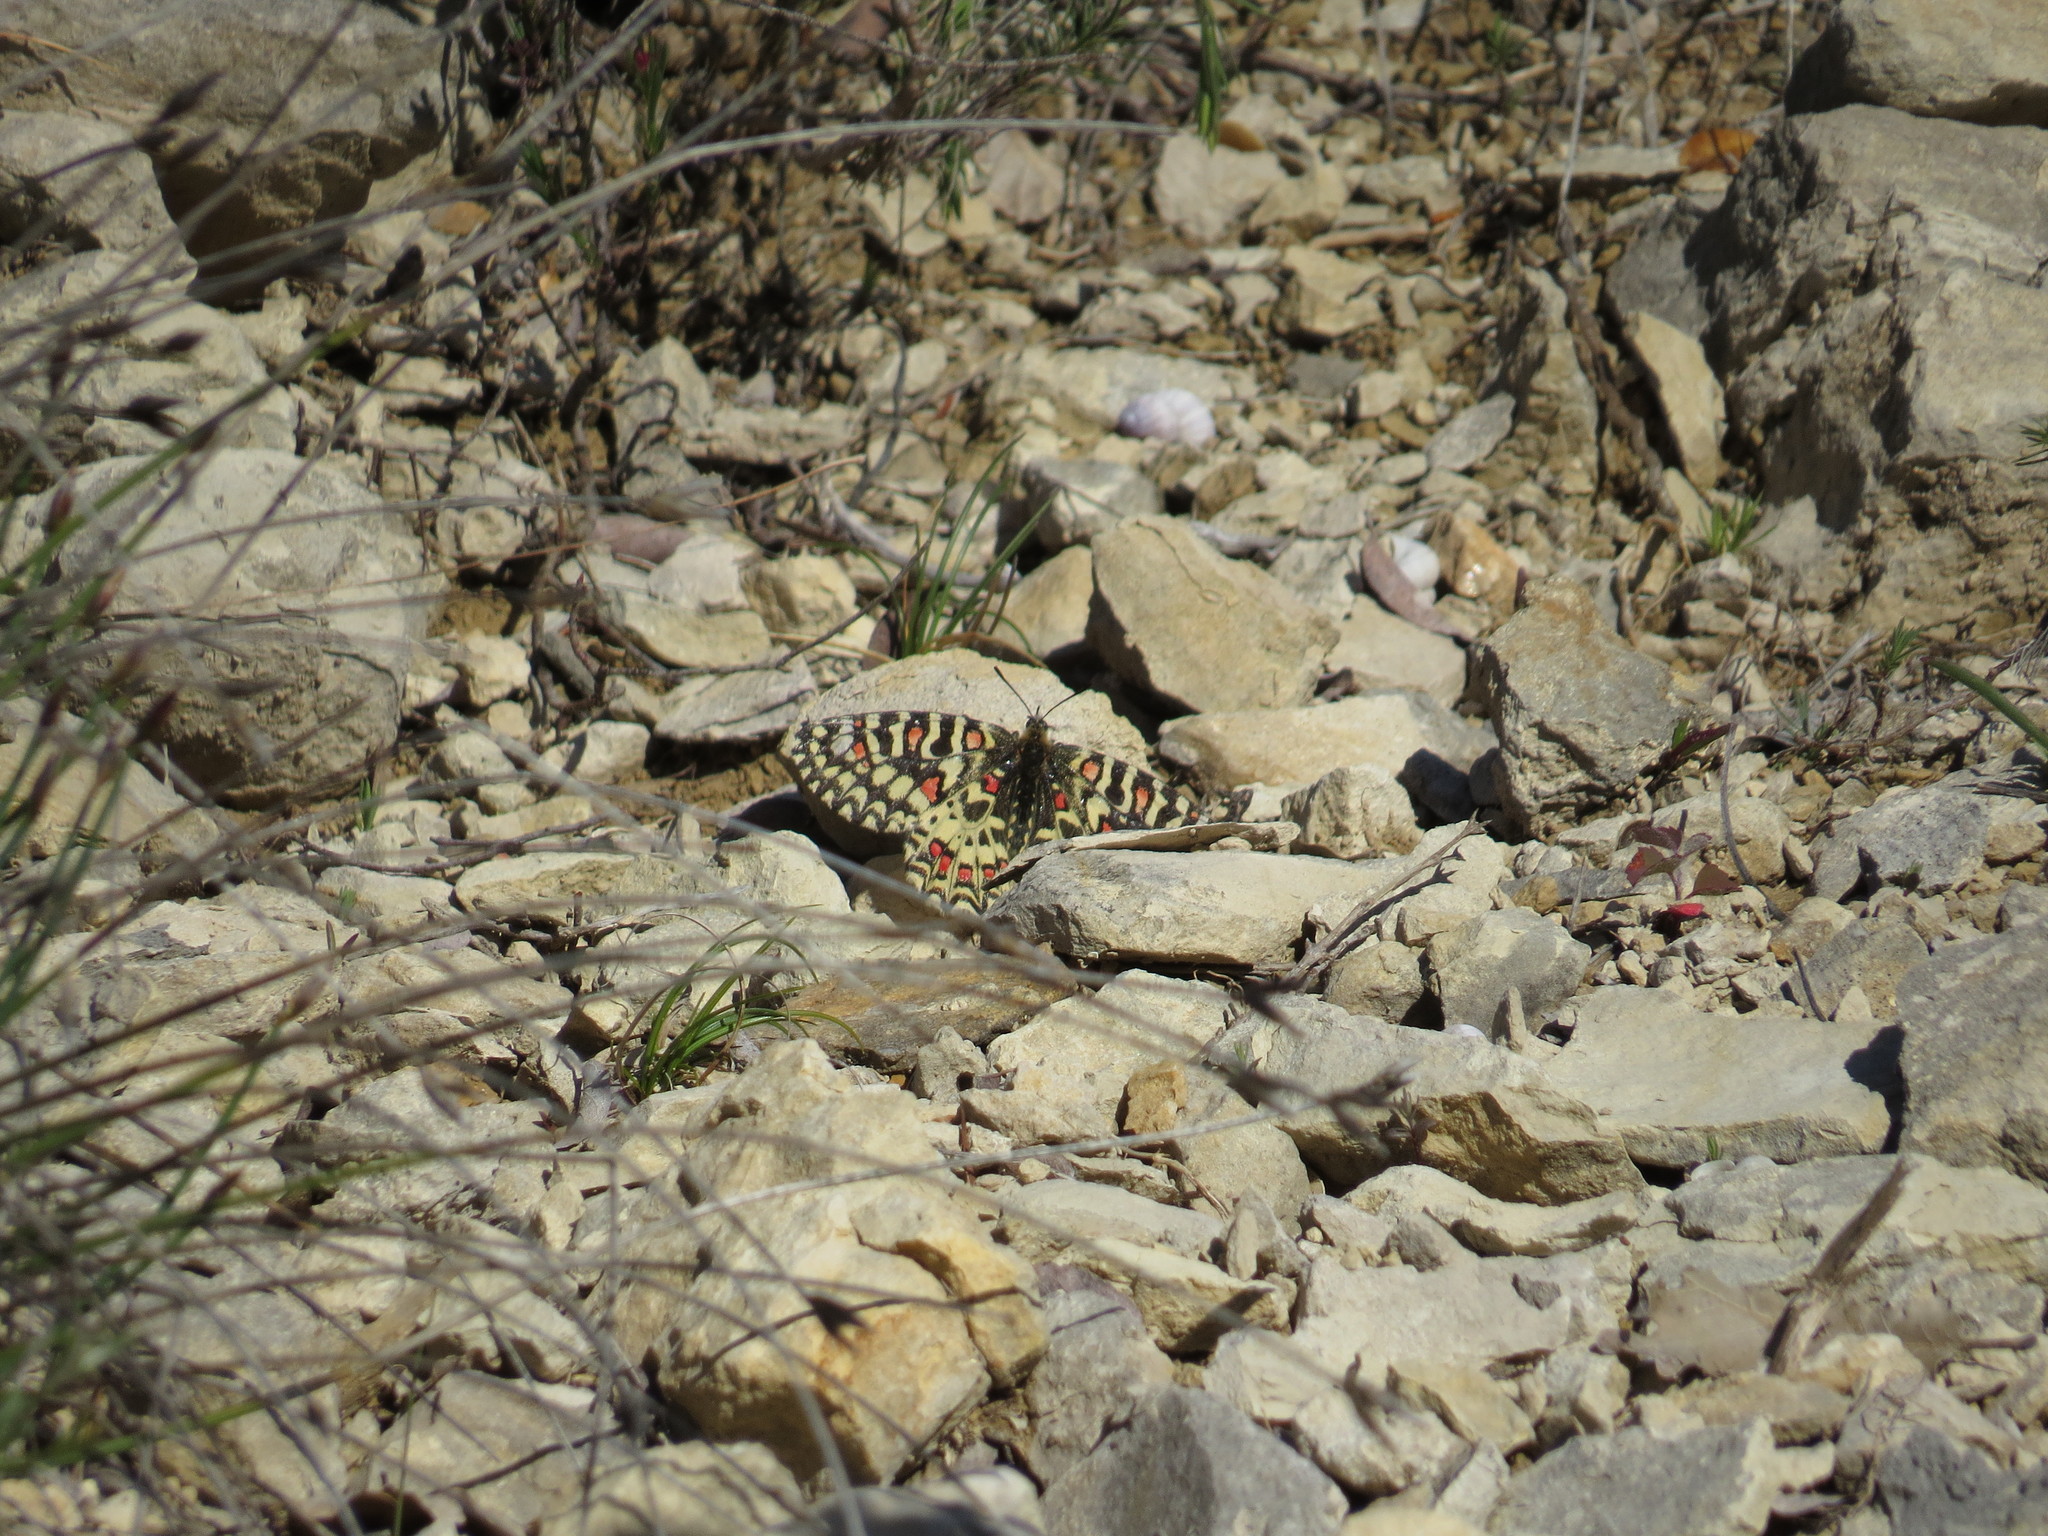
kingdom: Animalia
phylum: Arthropoda
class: Insecta
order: Lepidoptera
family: Papilionidae
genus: Zerynthia
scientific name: Zerynthia rumina
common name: Spanish festoon
